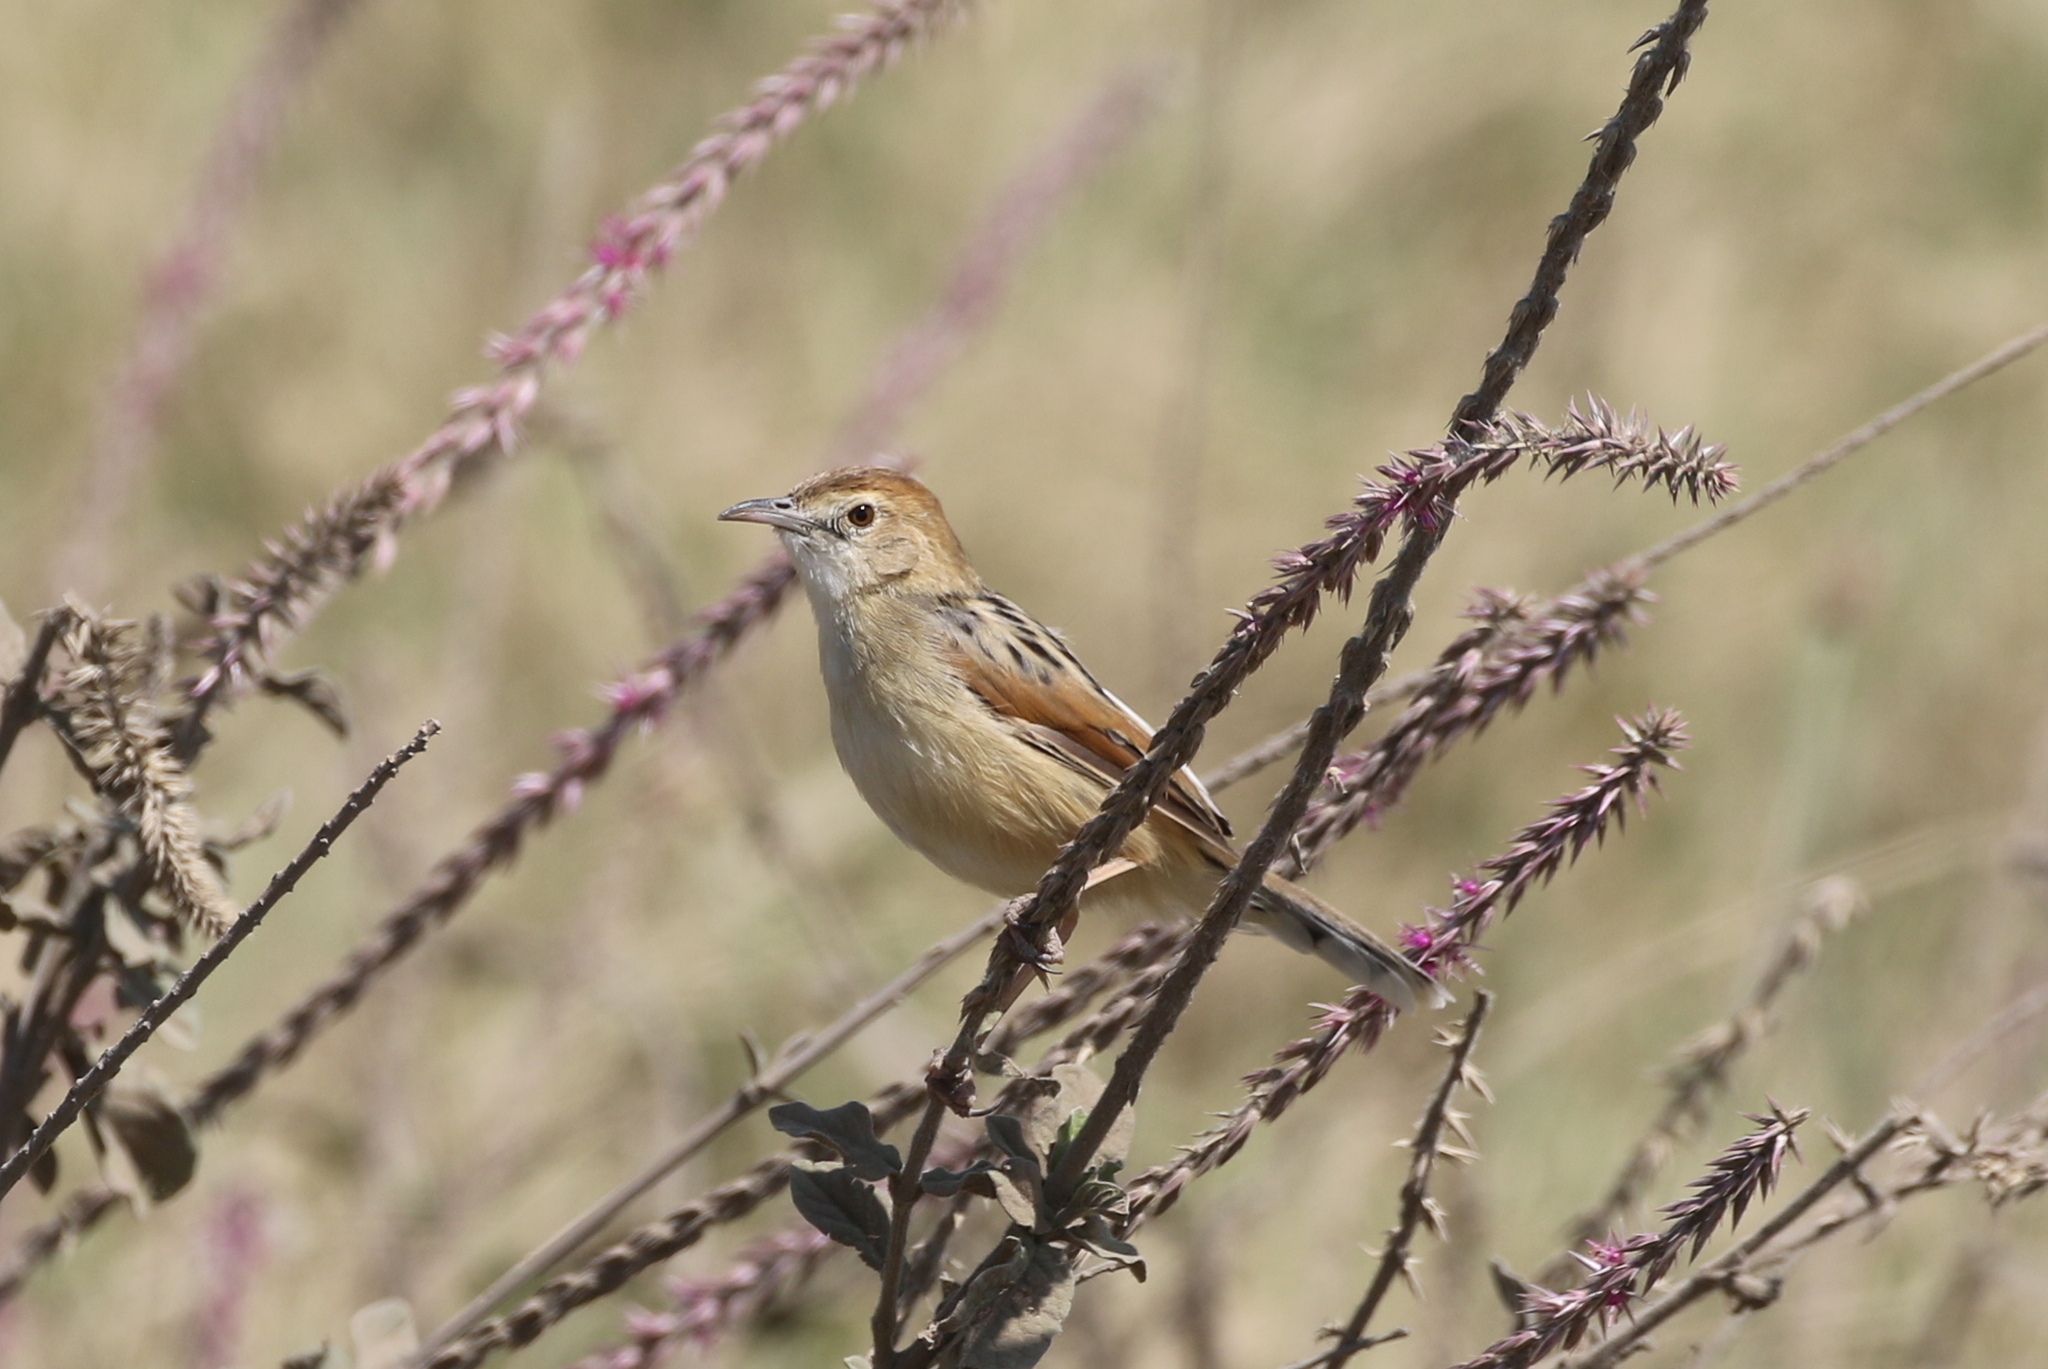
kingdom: Animalia
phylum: Chordata
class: Aves
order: Passeriformes
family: Cisticolidae
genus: Cisticola
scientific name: Cisticola marginatus
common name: Winding cisticola
